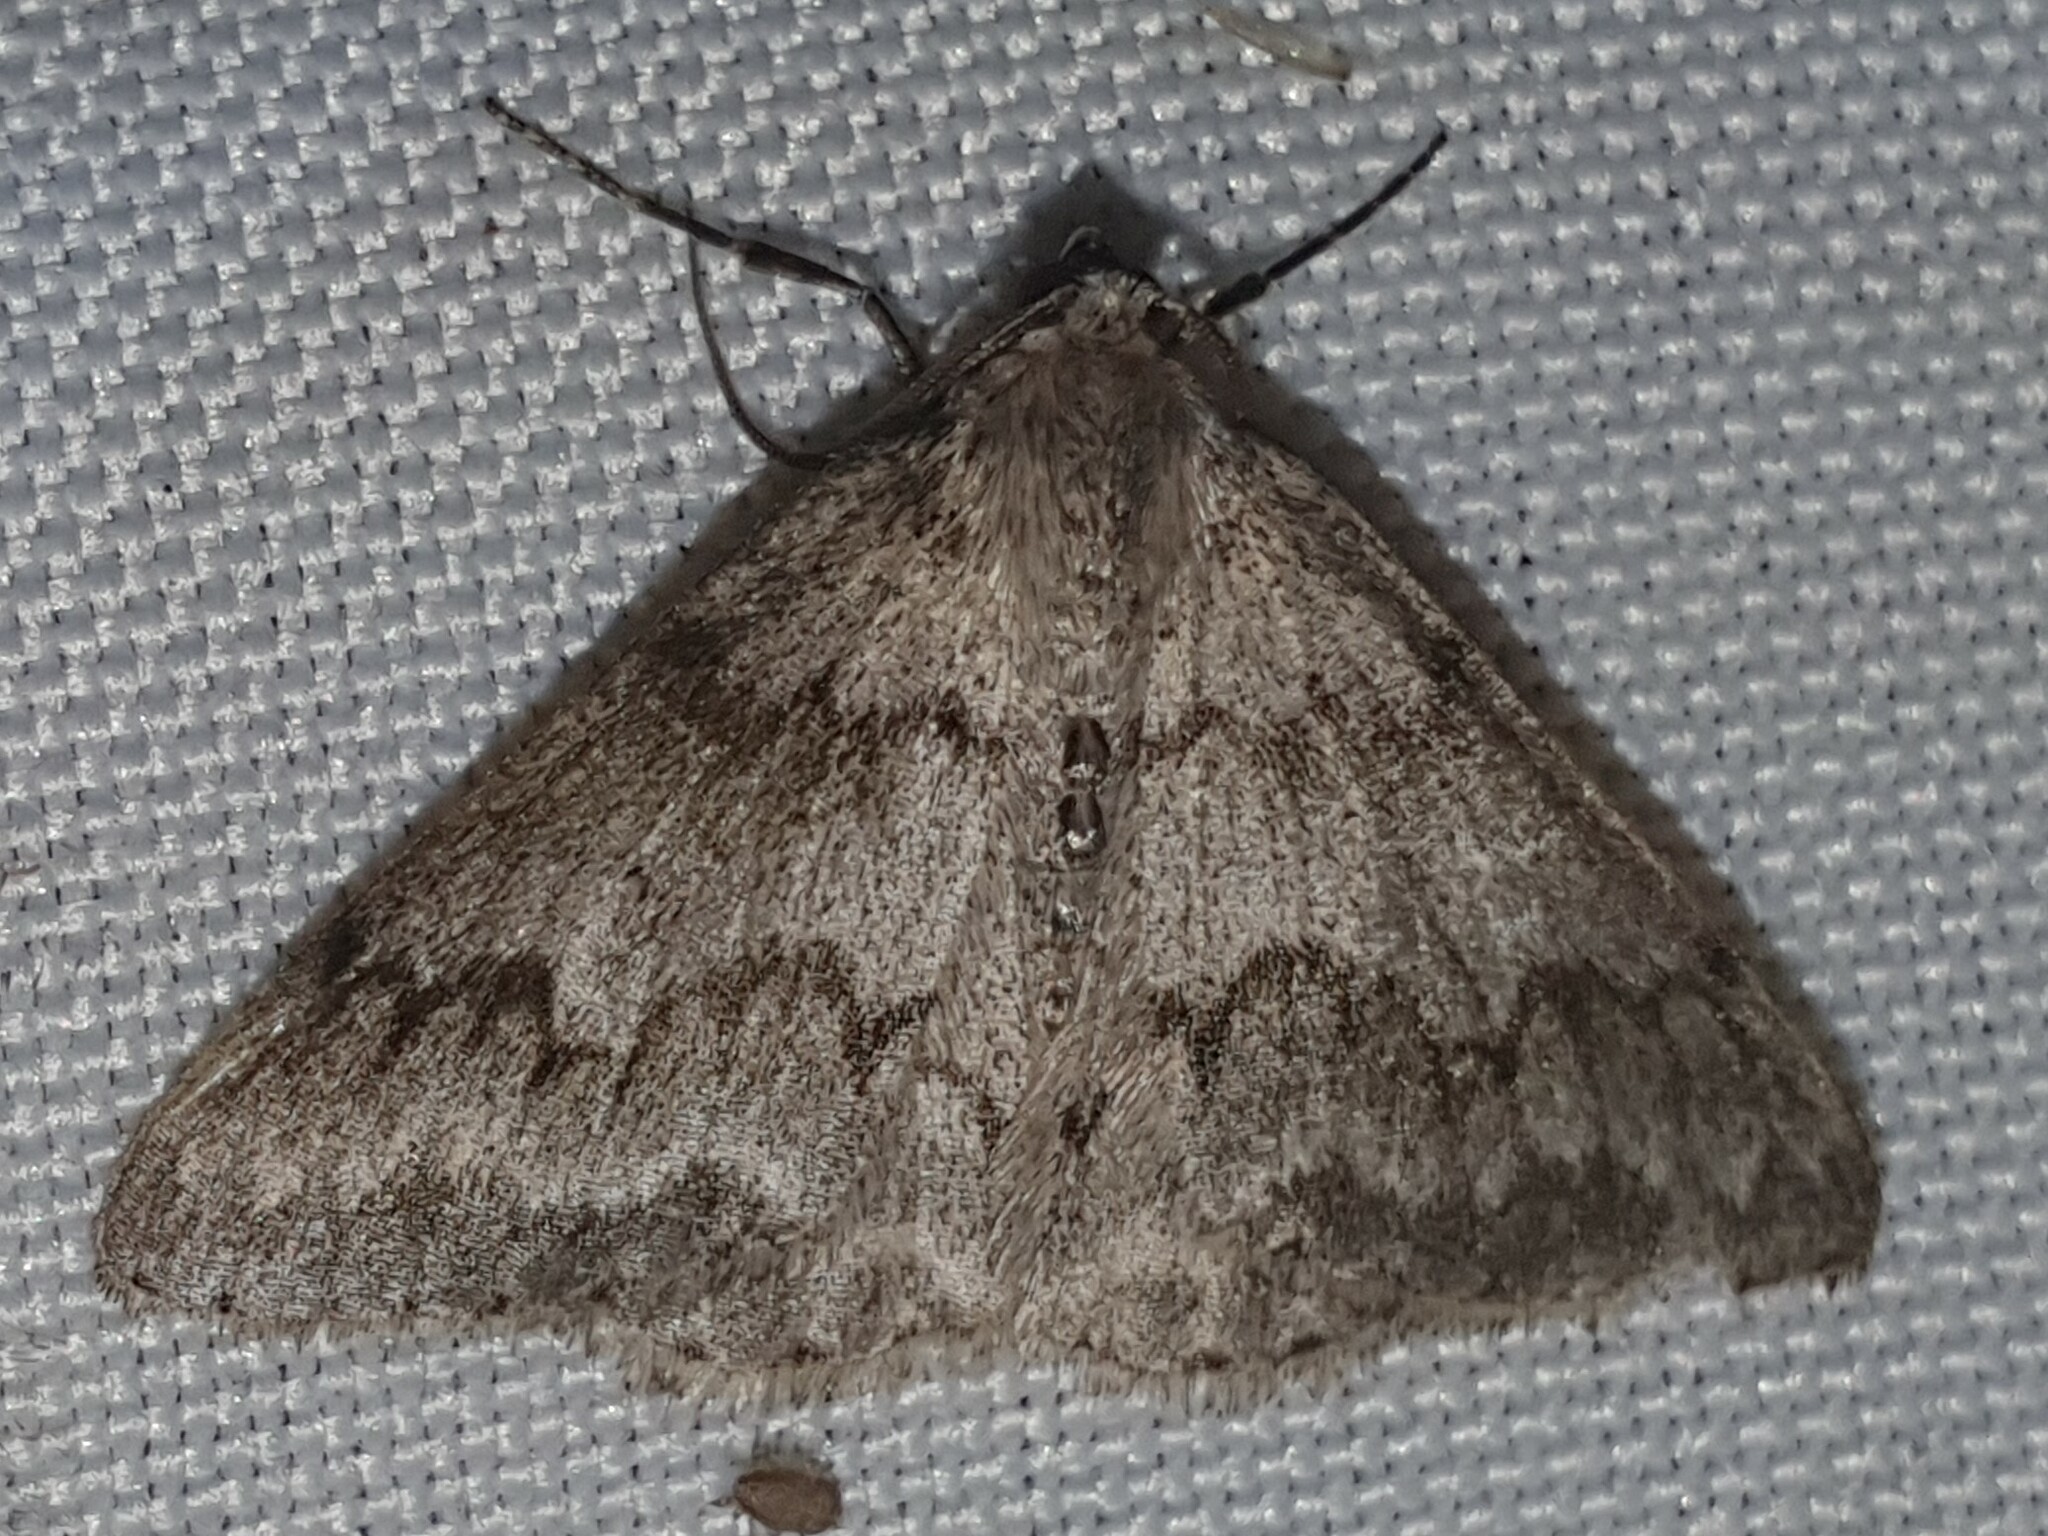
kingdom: Animalia
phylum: Arthropoda
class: Insecta
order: Lepidoptera
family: Geometridae
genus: Pseudoterpna
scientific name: Pseudoterpna coronillaria
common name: Jersey emerald
